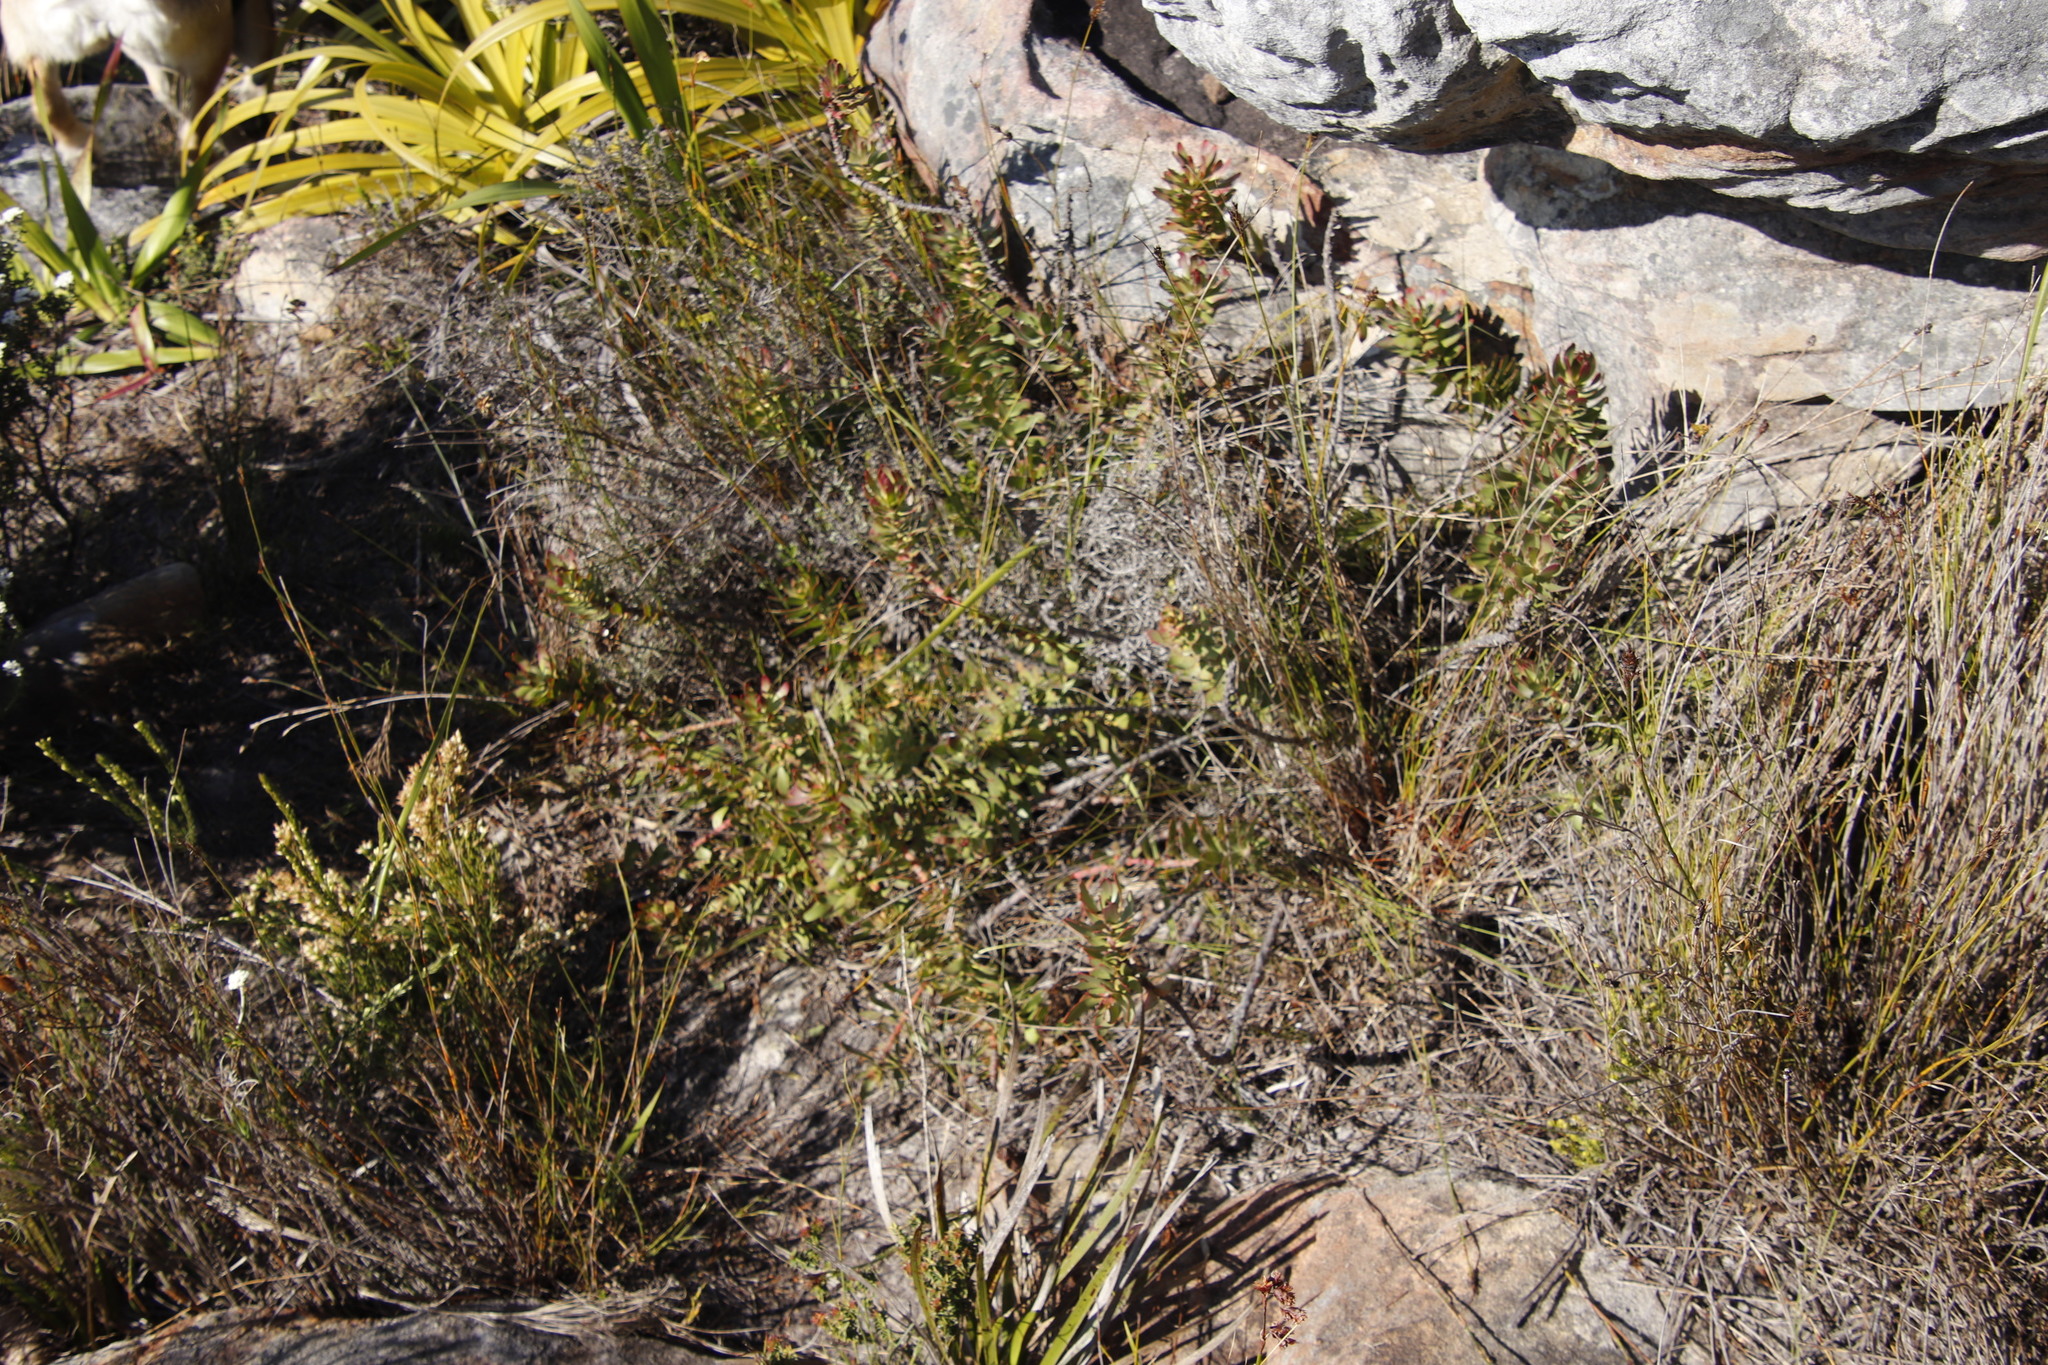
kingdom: Plantae
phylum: Tracheophyta
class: Magnoliopsida
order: Proteales
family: Proteaceae
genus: Mimetes
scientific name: Mimetes cucullatus
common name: Common pagoda
